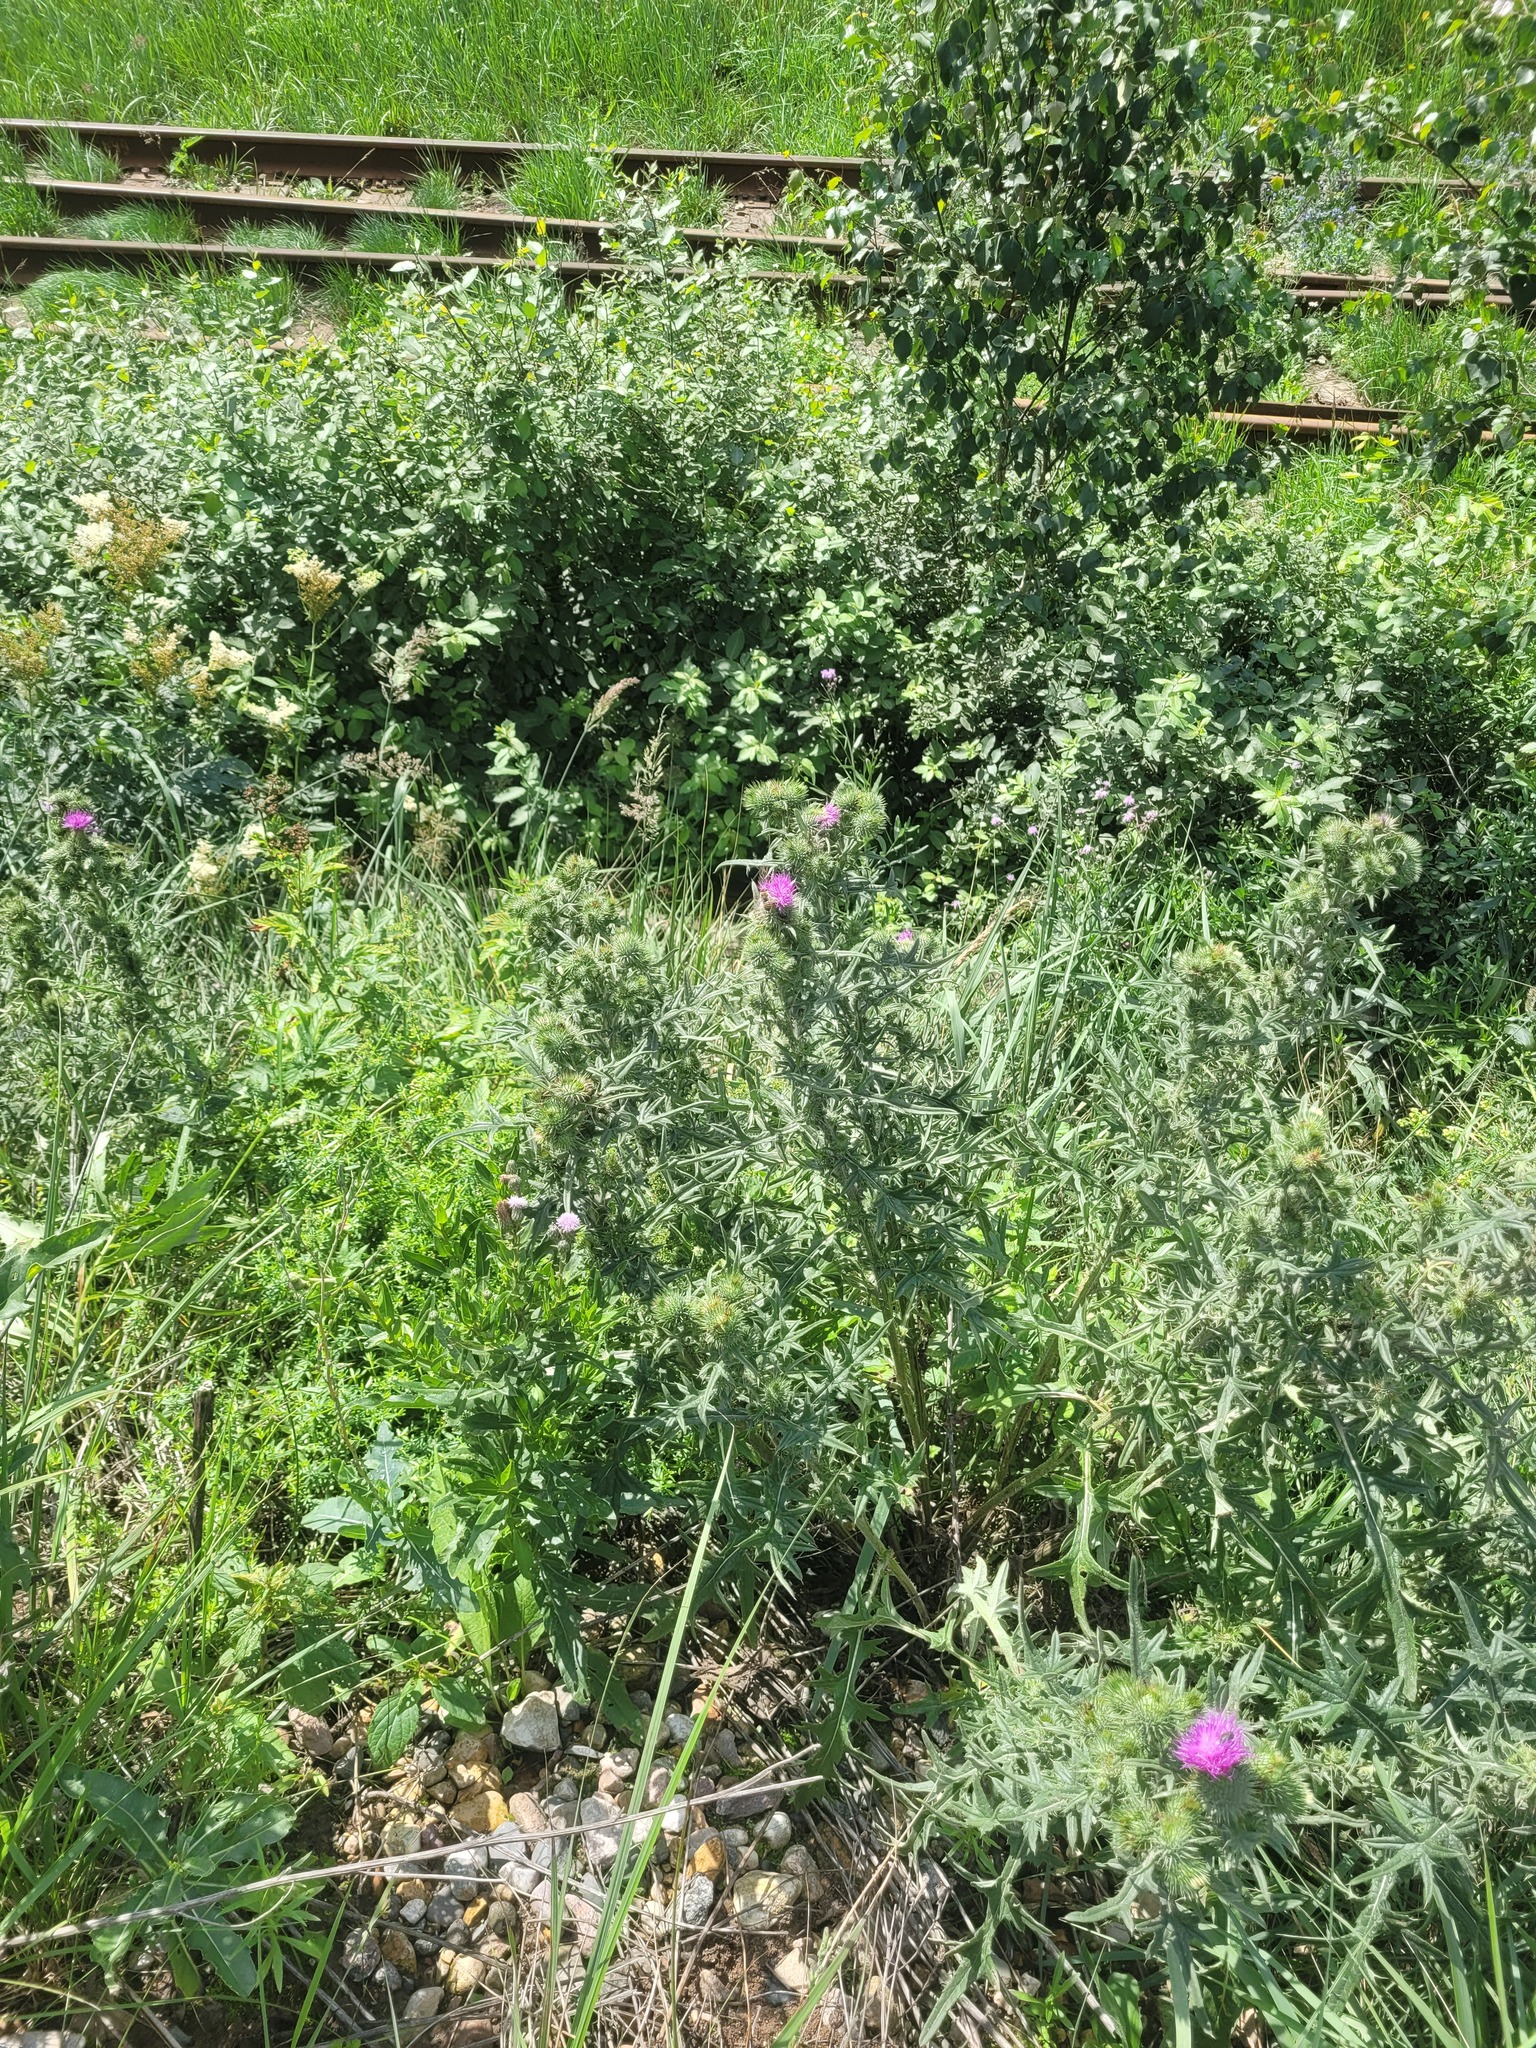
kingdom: Plantae
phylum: Tracheophyta
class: Magnoliopsida
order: Asterales
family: Asteraceae
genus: Cirsium
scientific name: Cirsium vulgare
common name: Bull thistle
